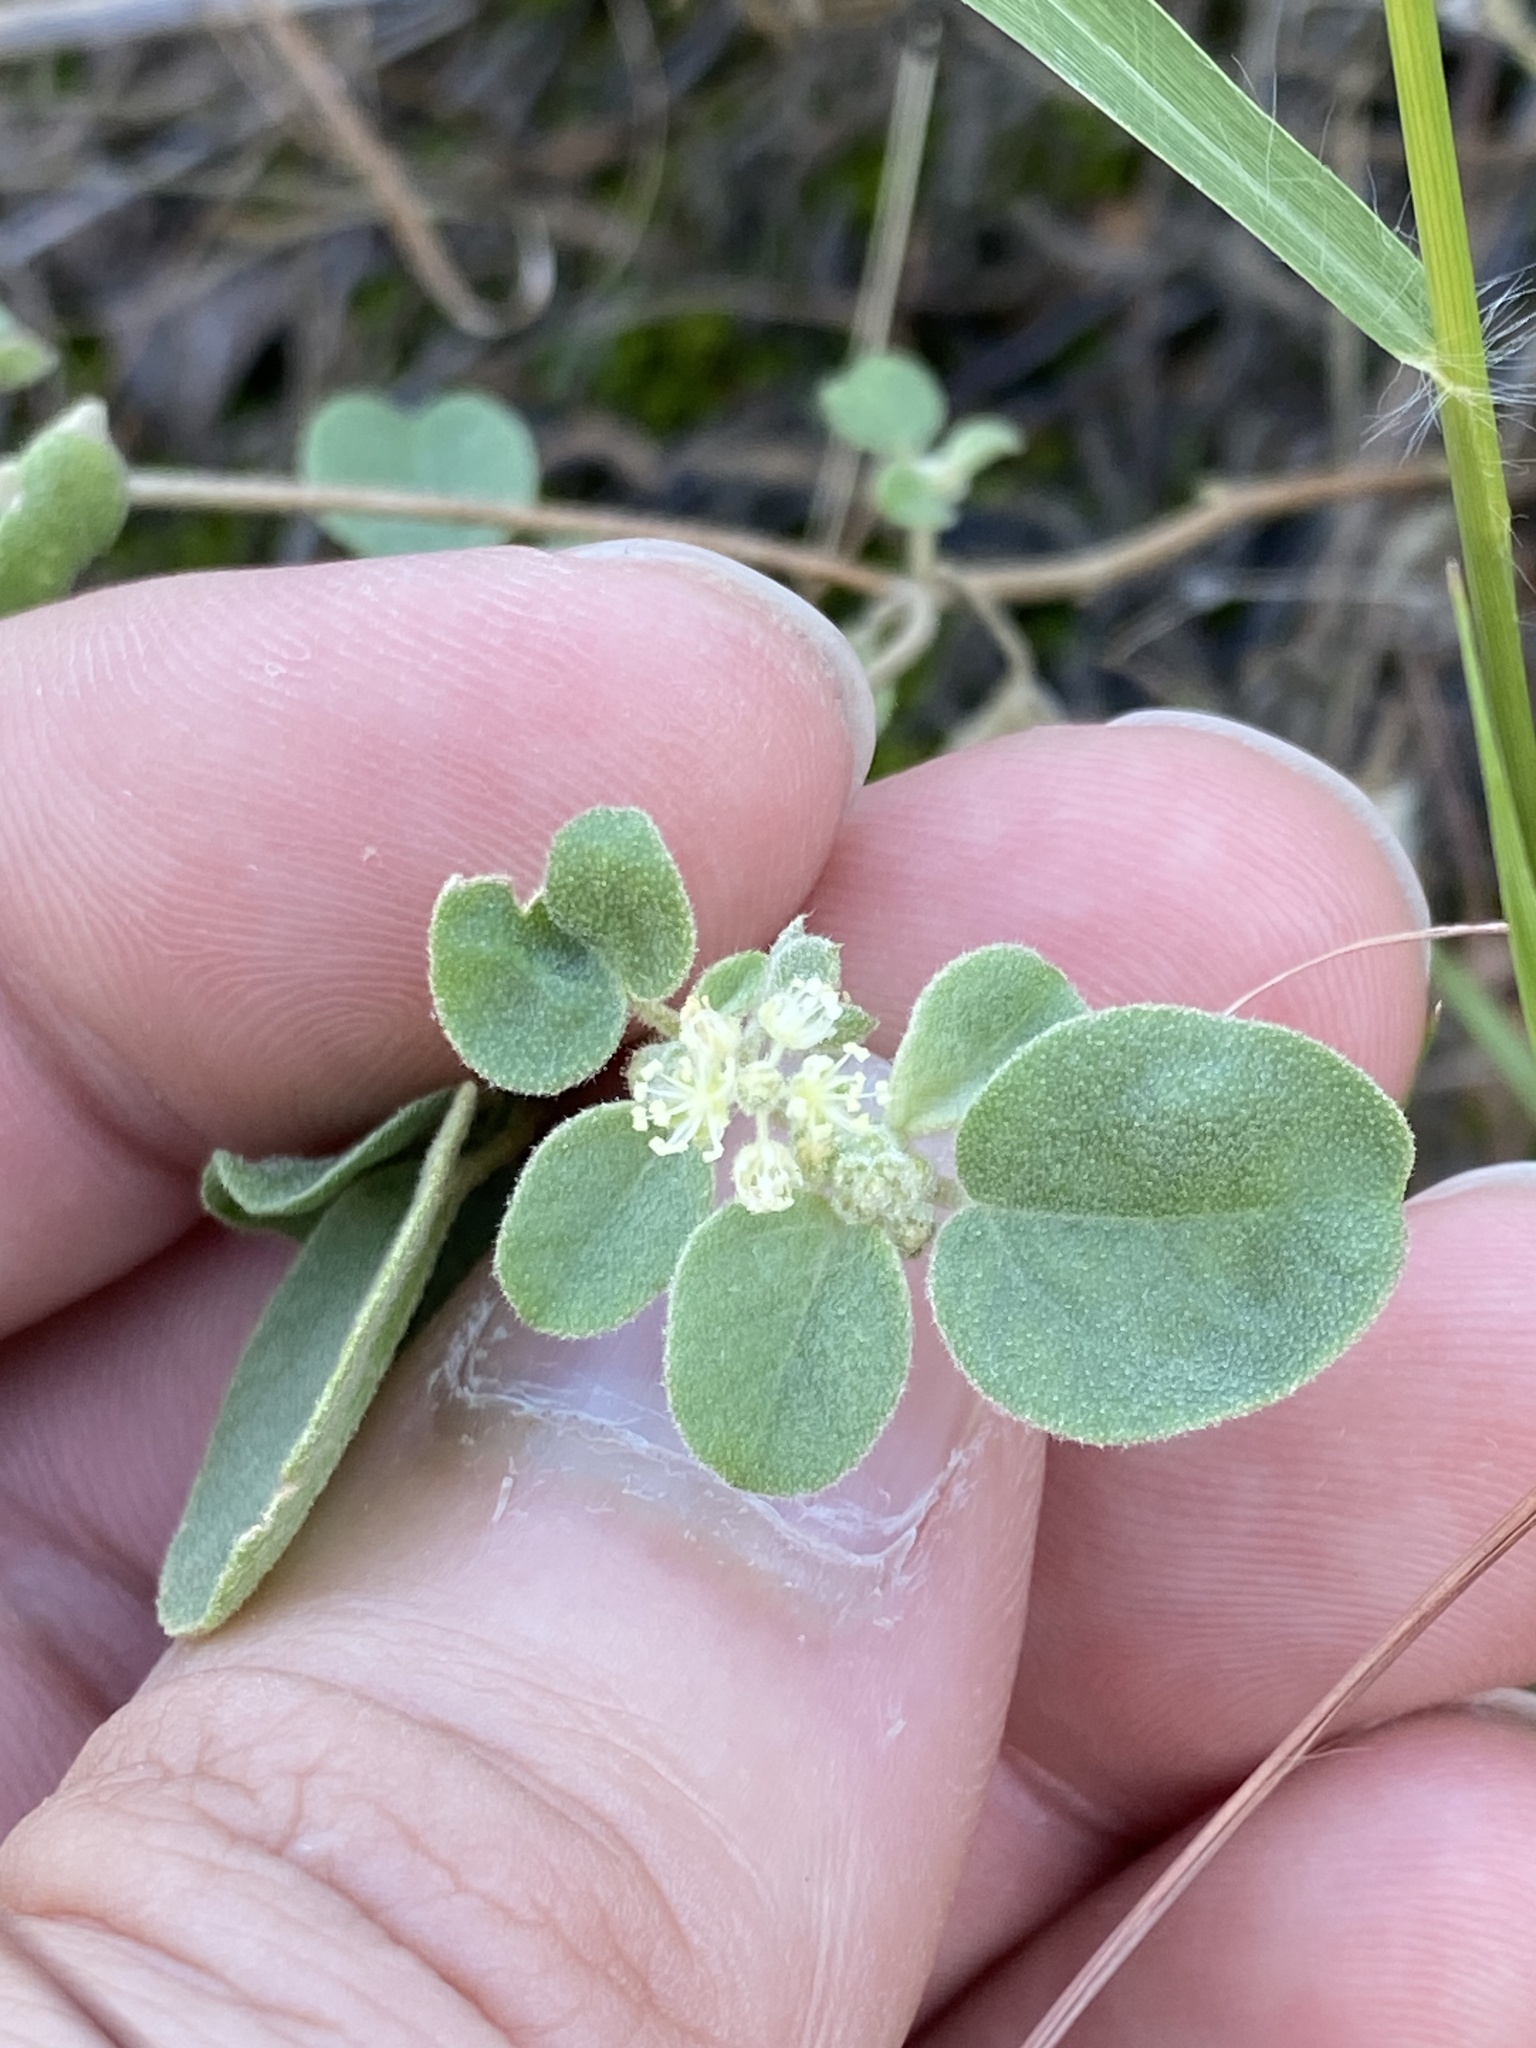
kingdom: Plantae
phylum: Tracheophyta
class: Magnoliopsida
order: Malpighiales
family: Euphorbiaceae
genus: Croton
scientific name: Croton lindheimerianus
